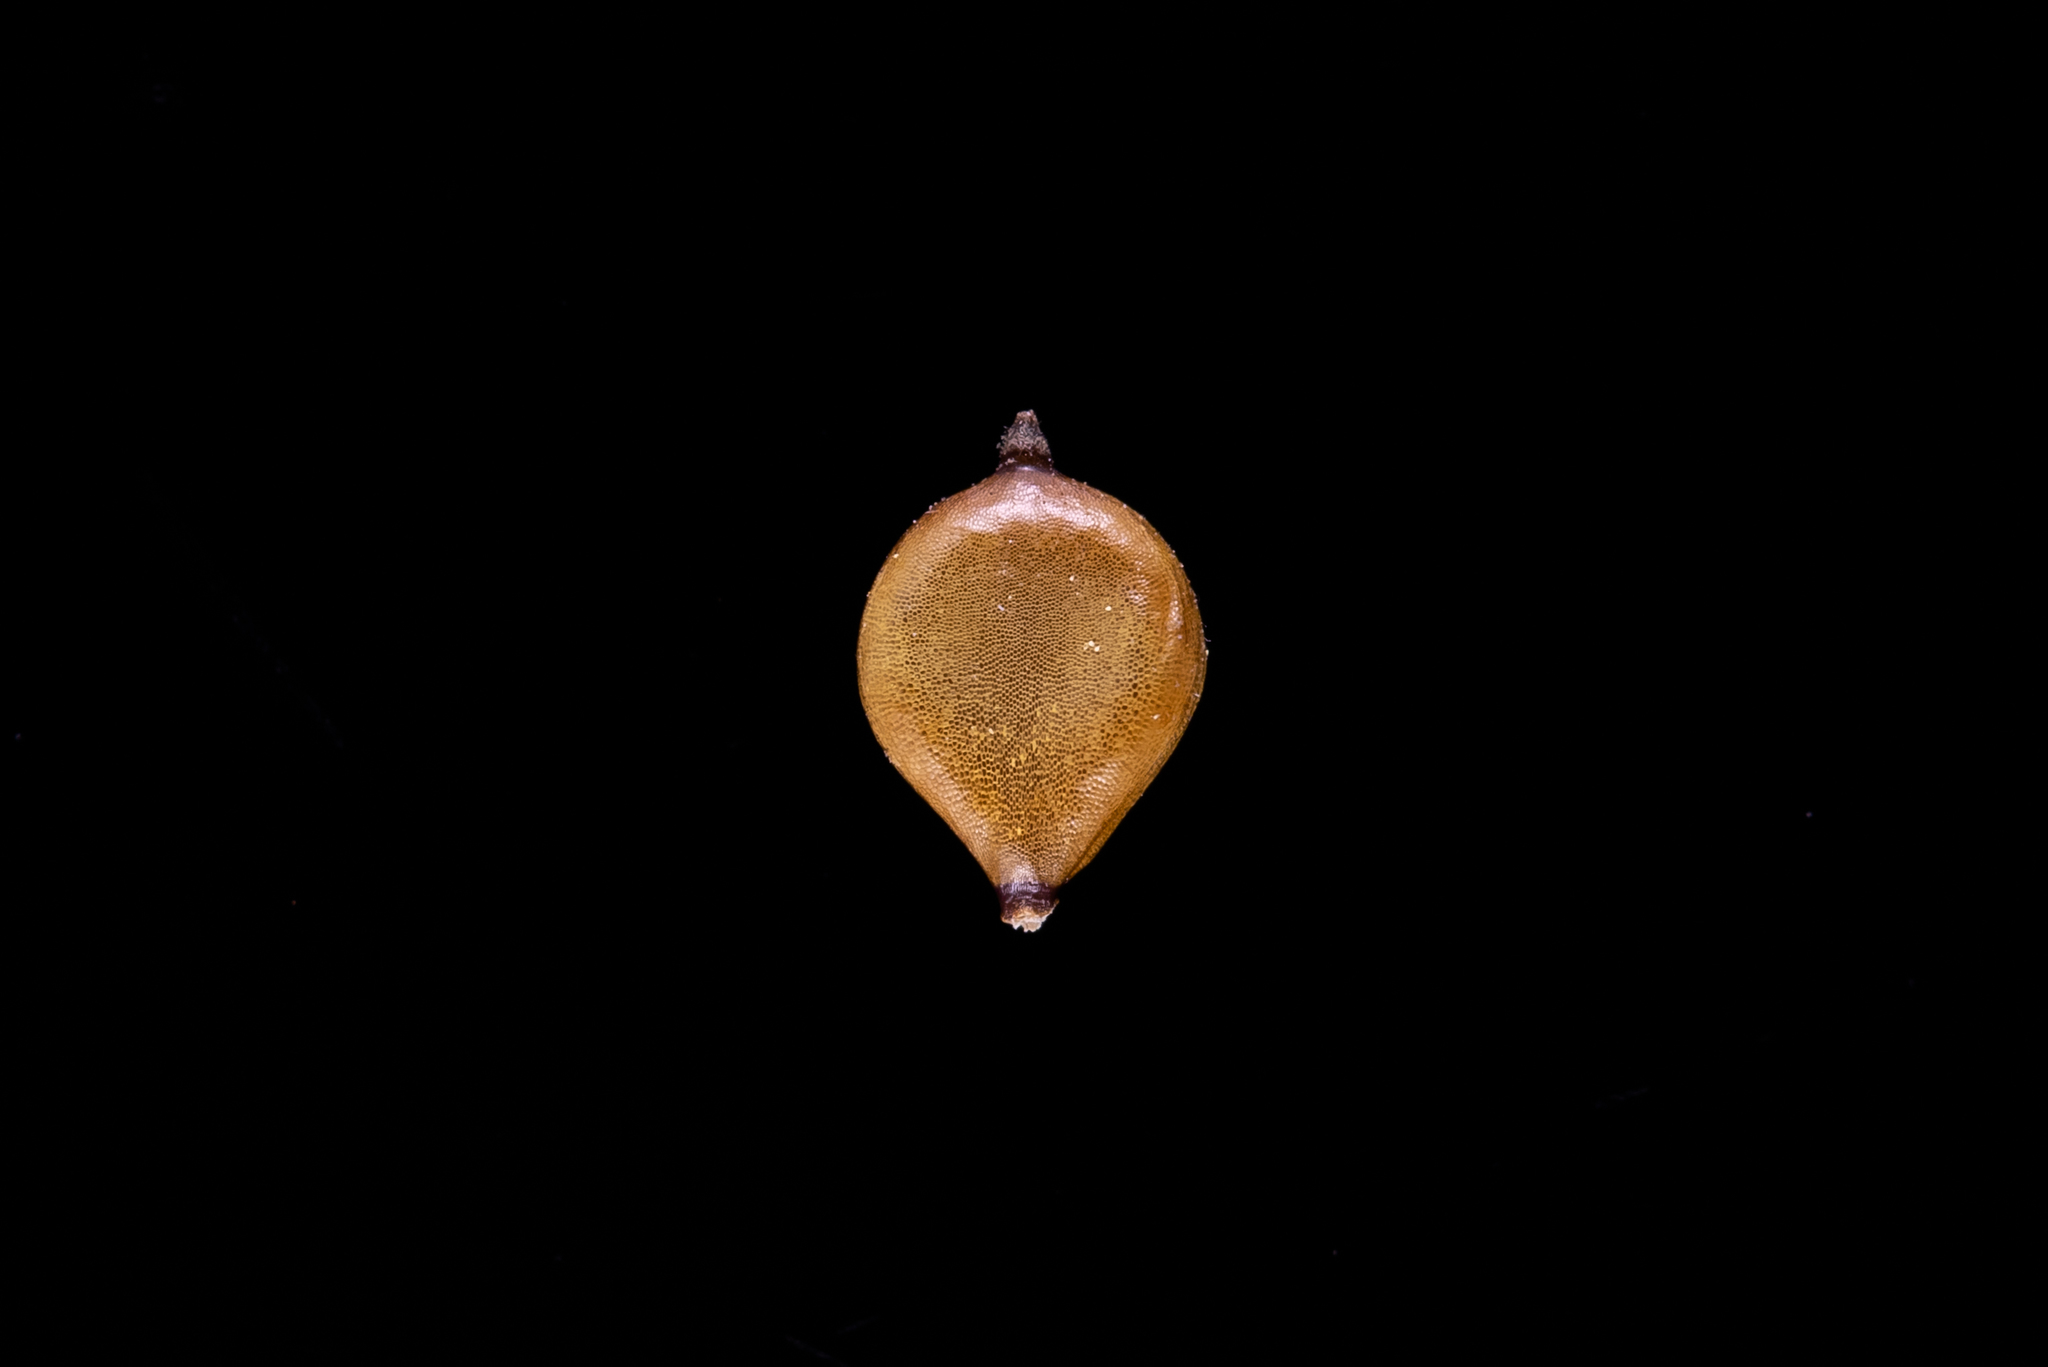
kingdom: Plantae
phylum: Tracheophyta
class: Liliopsida
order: Poales
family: Cyperaceae
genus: Bolboschoenus
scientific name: Bolboschoenus caldwellii
